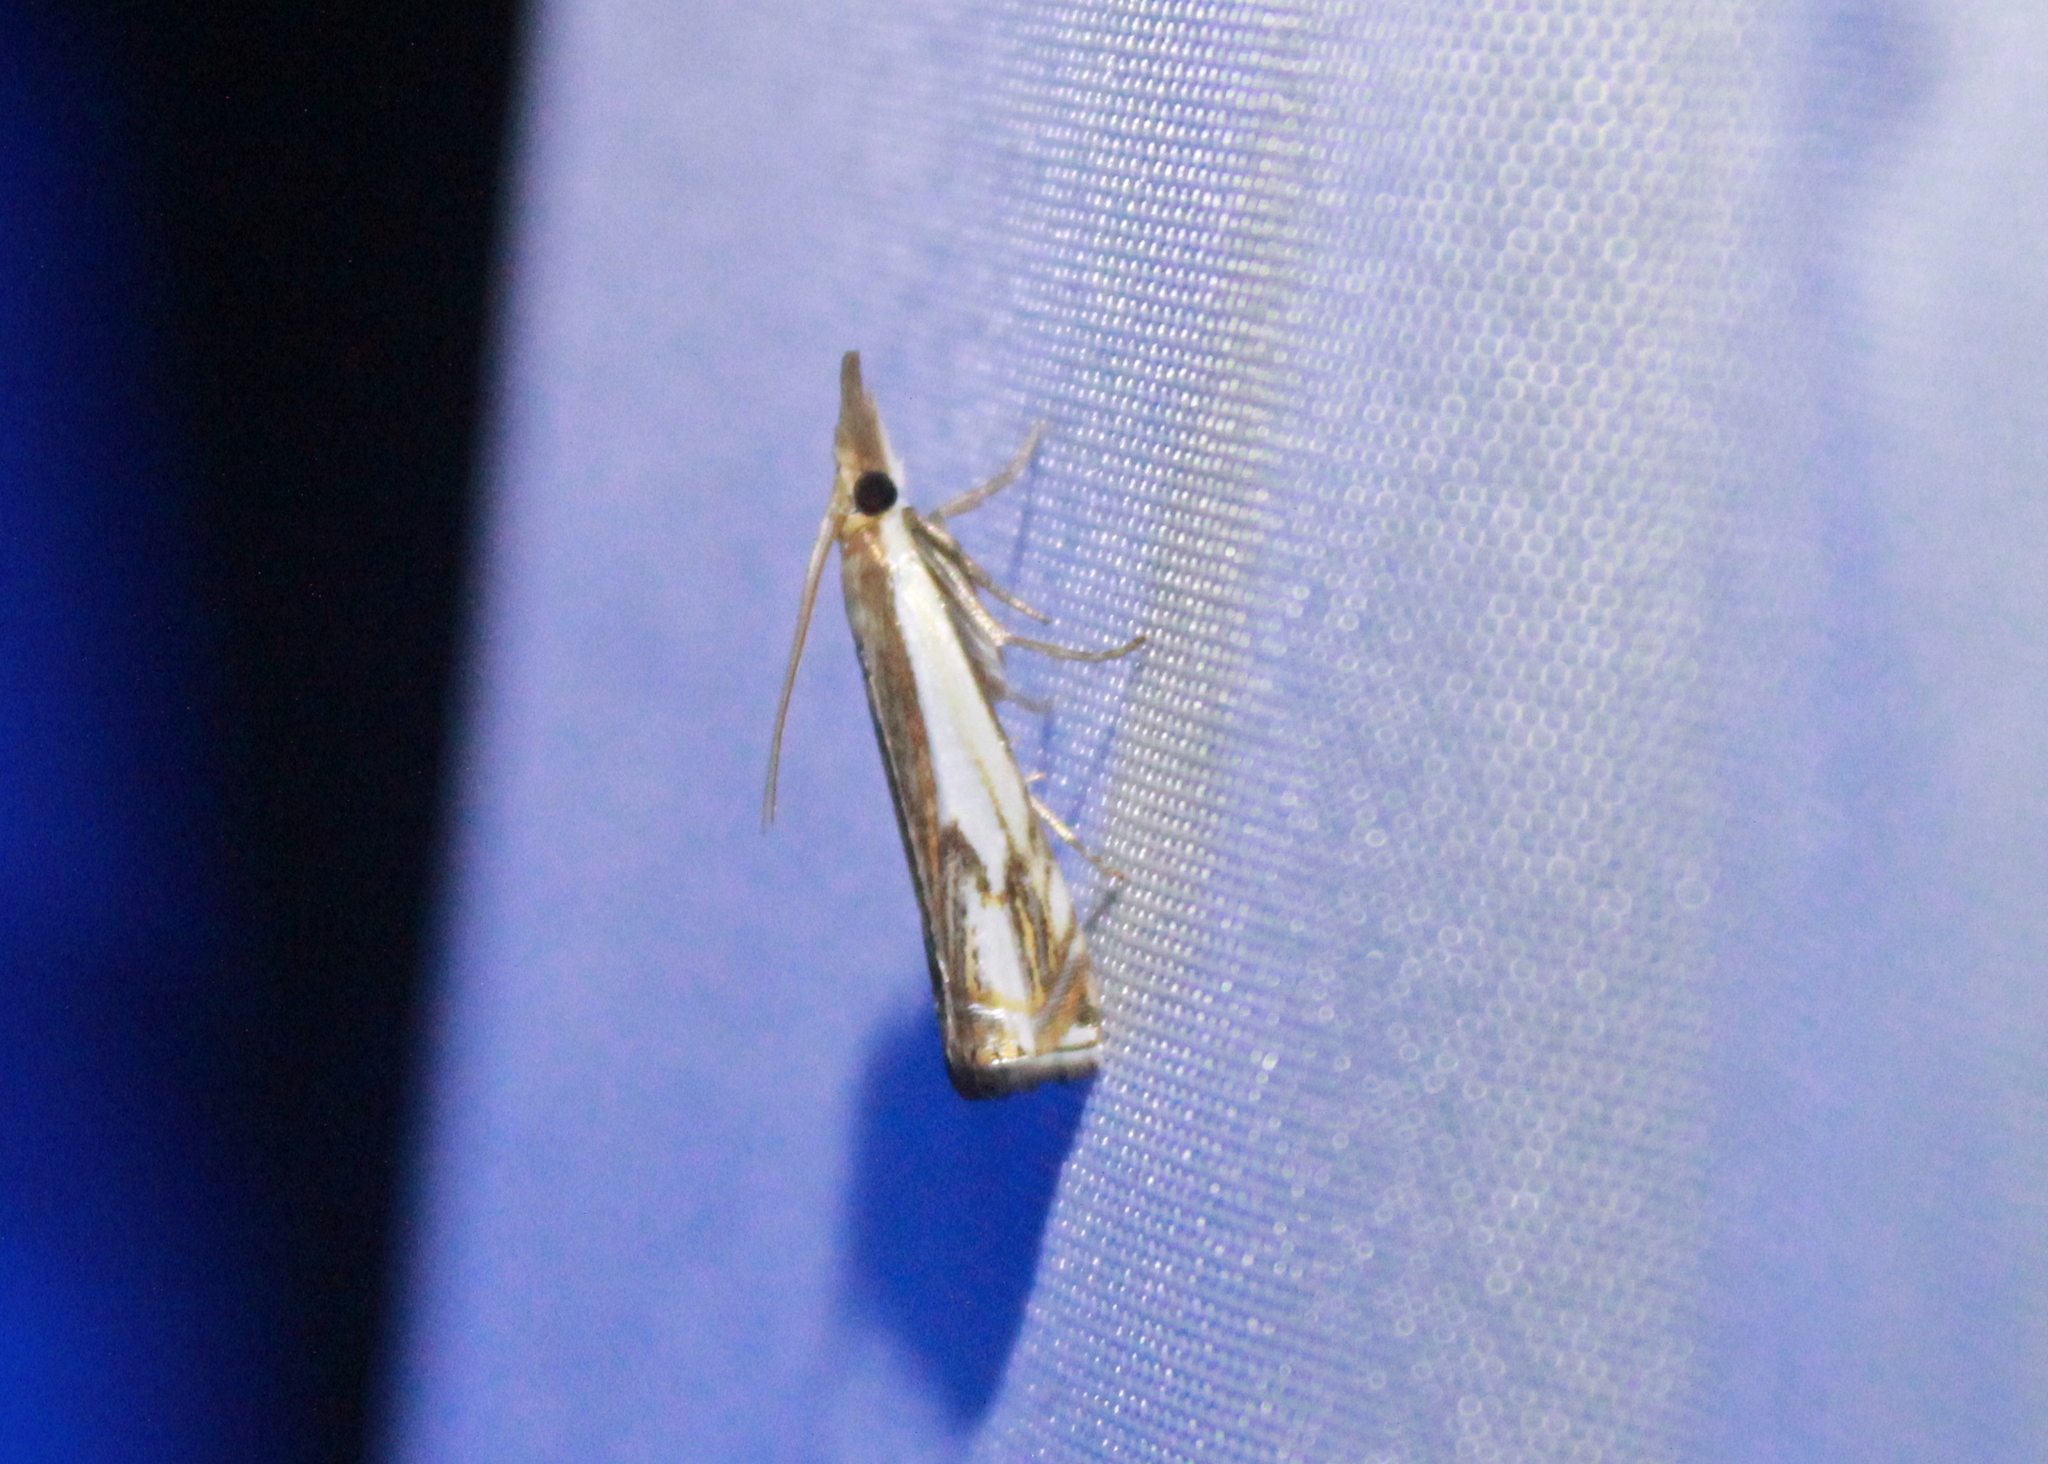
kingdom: Animalia
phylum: Arthropoda
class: Insecta
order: Lepidoptera
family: Crambidae
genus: Crambus
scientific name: Crambus agitatellus
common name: Double-banded grass-veneer
